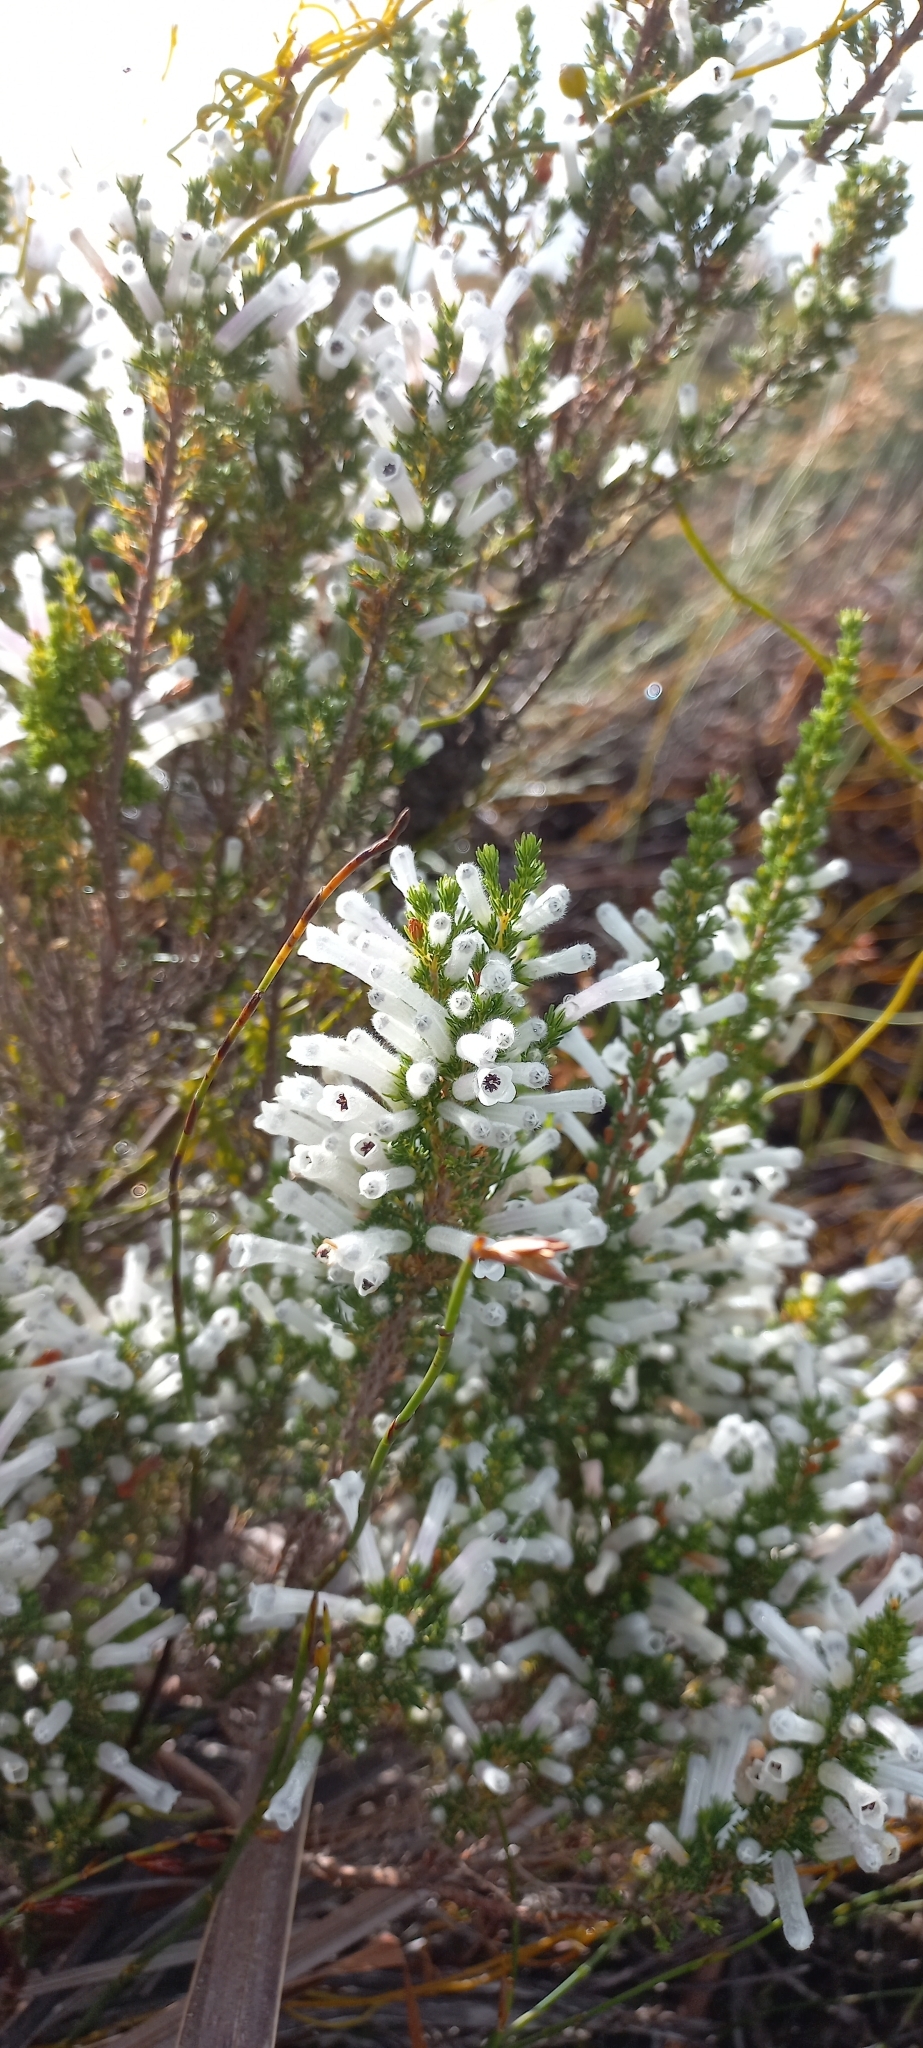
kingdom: Plantae
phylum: Tracheophyta
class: Magnoliopsida
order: Ericales
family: Ericaceae
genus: Erica
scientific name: Erica perspicua
